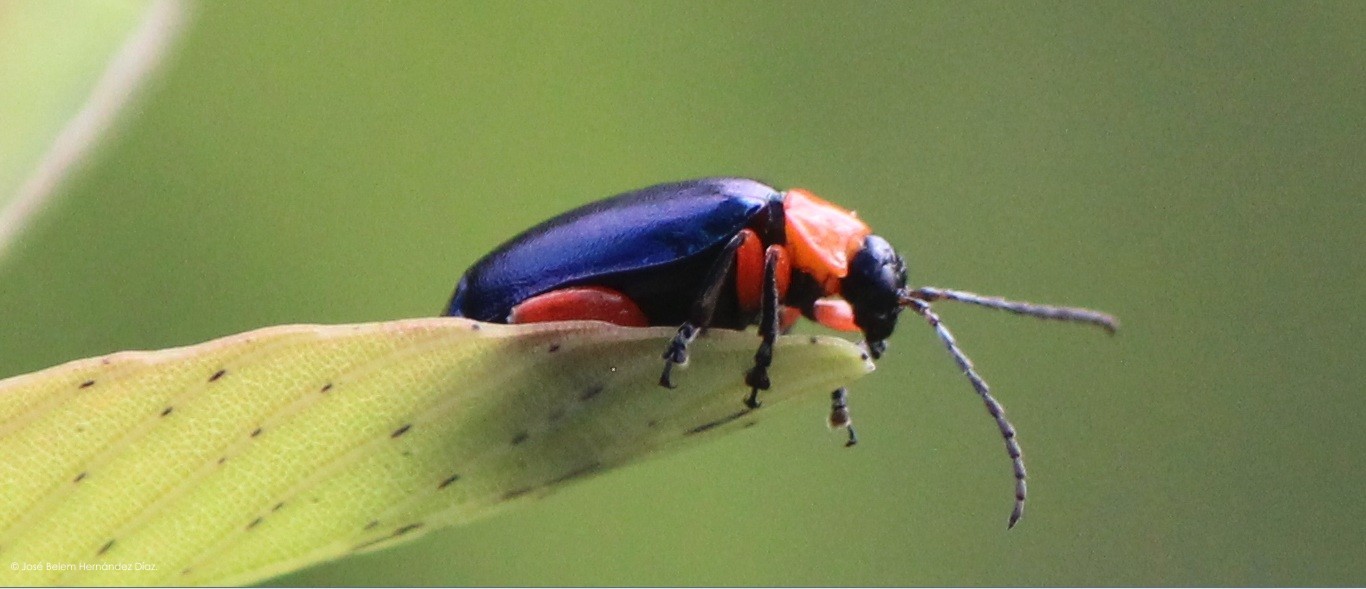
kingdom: Animalia
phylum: Arthropoda
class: Insecta
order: Coleoptera
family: Chrysomelidae
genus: Asphaera
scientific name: Asphaera abdominalis
